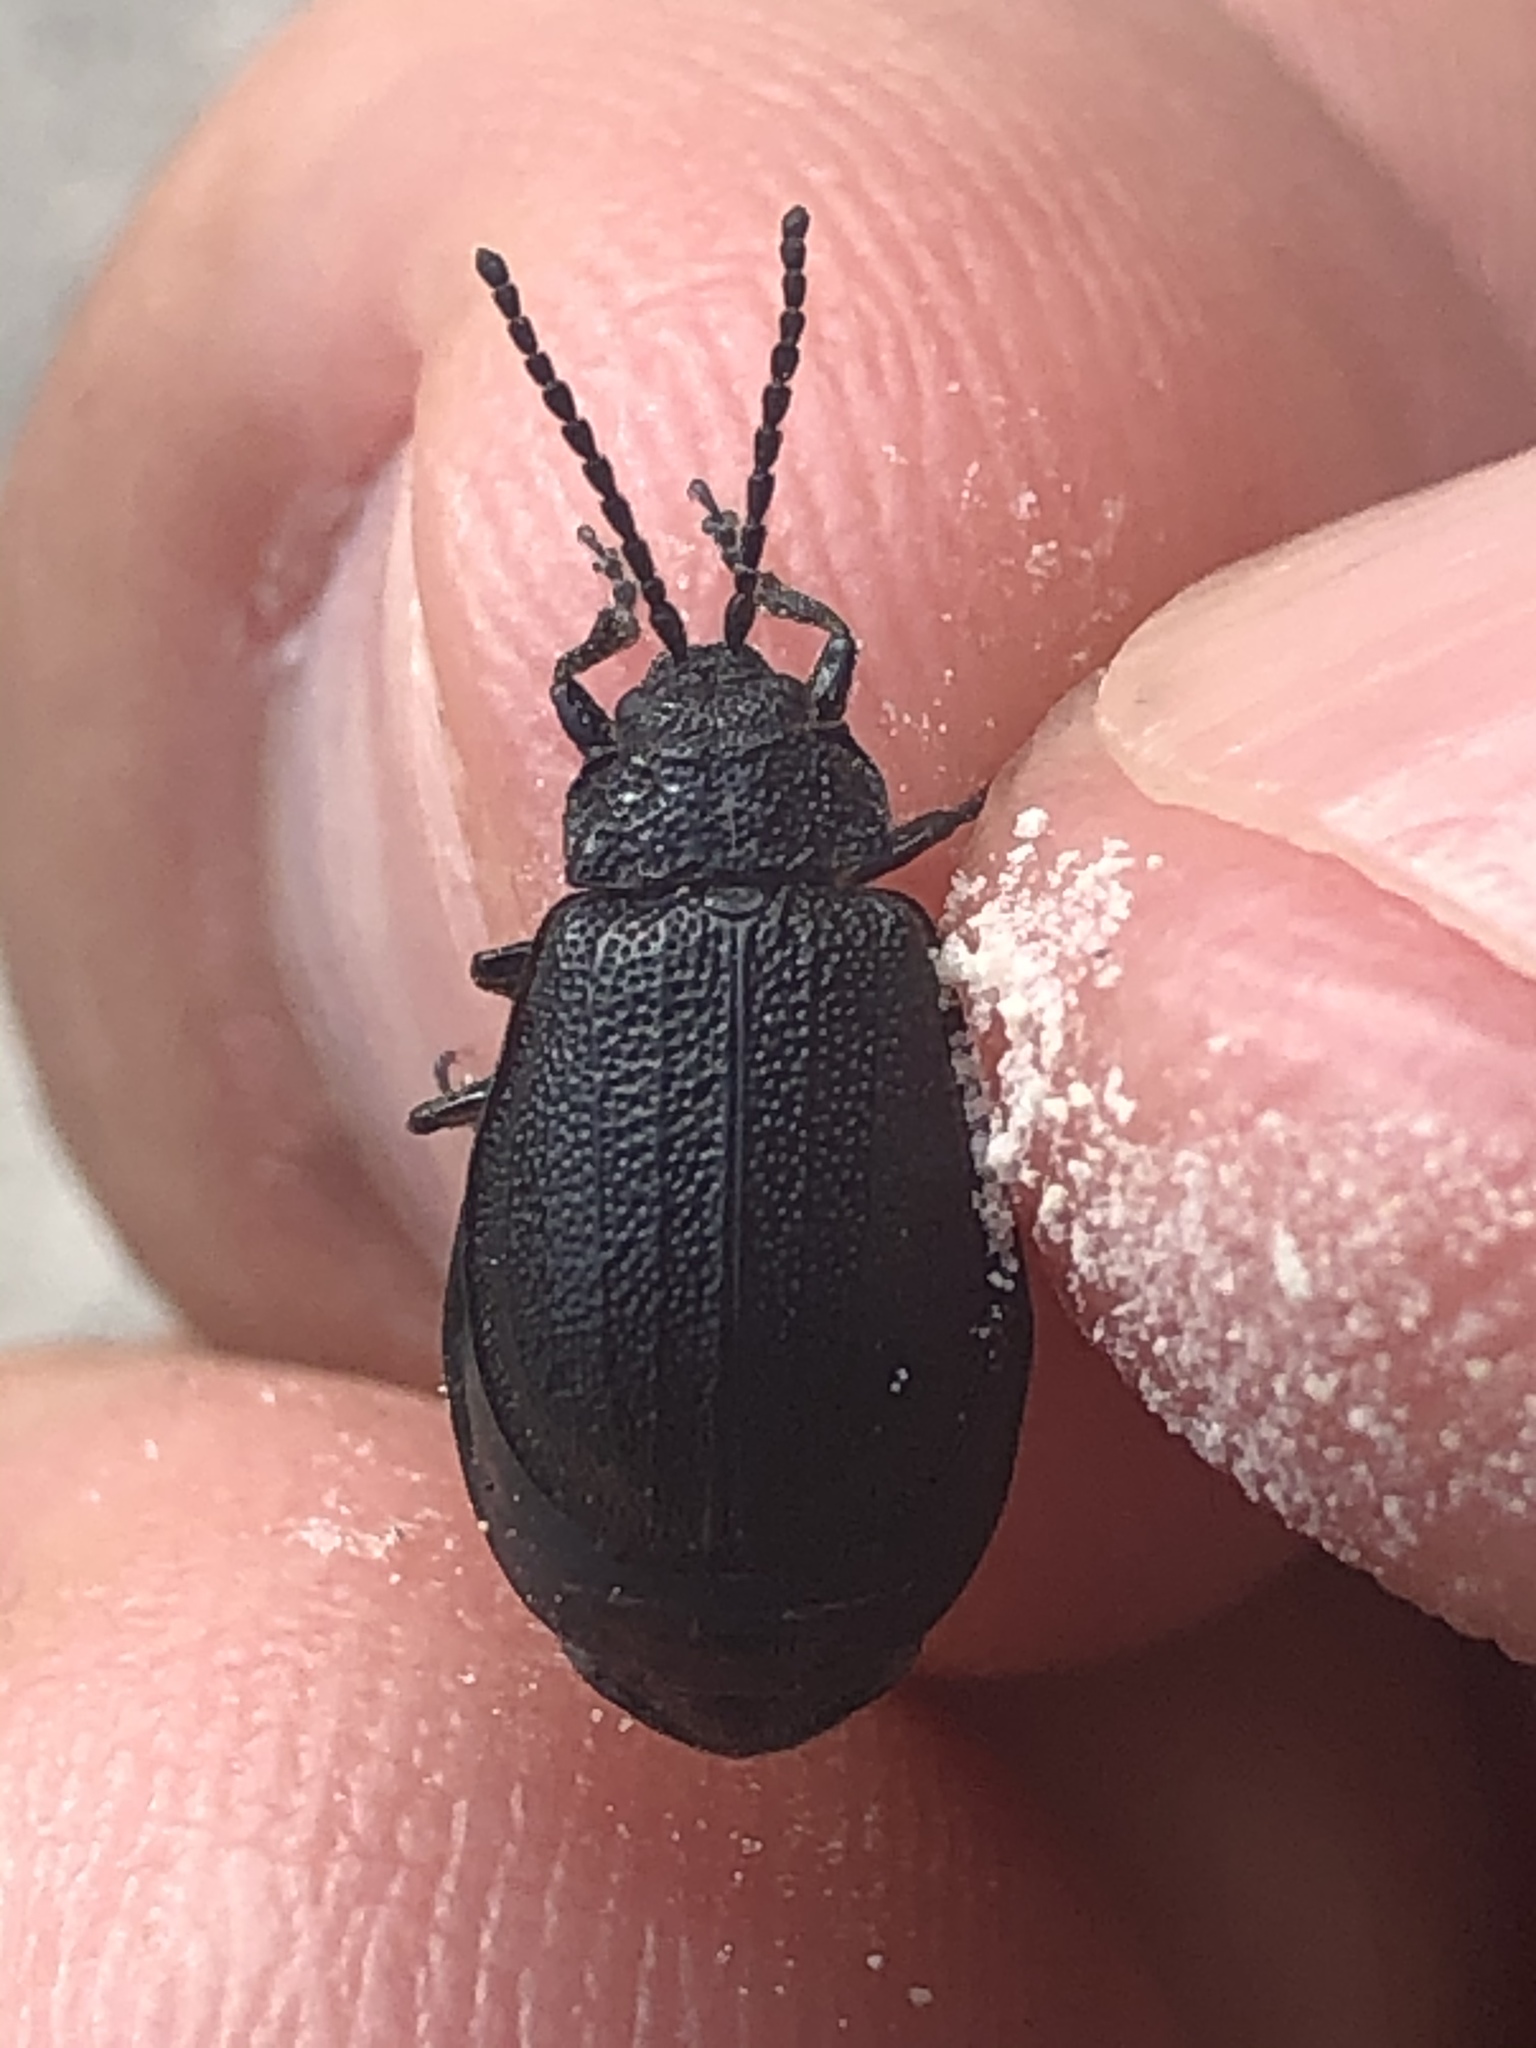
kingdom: Animalia
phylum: Arthropoda
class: Insecta
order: Coleoptera
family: Chrysomelidae
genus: Galeruca
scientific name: Galeruca tanaceti
